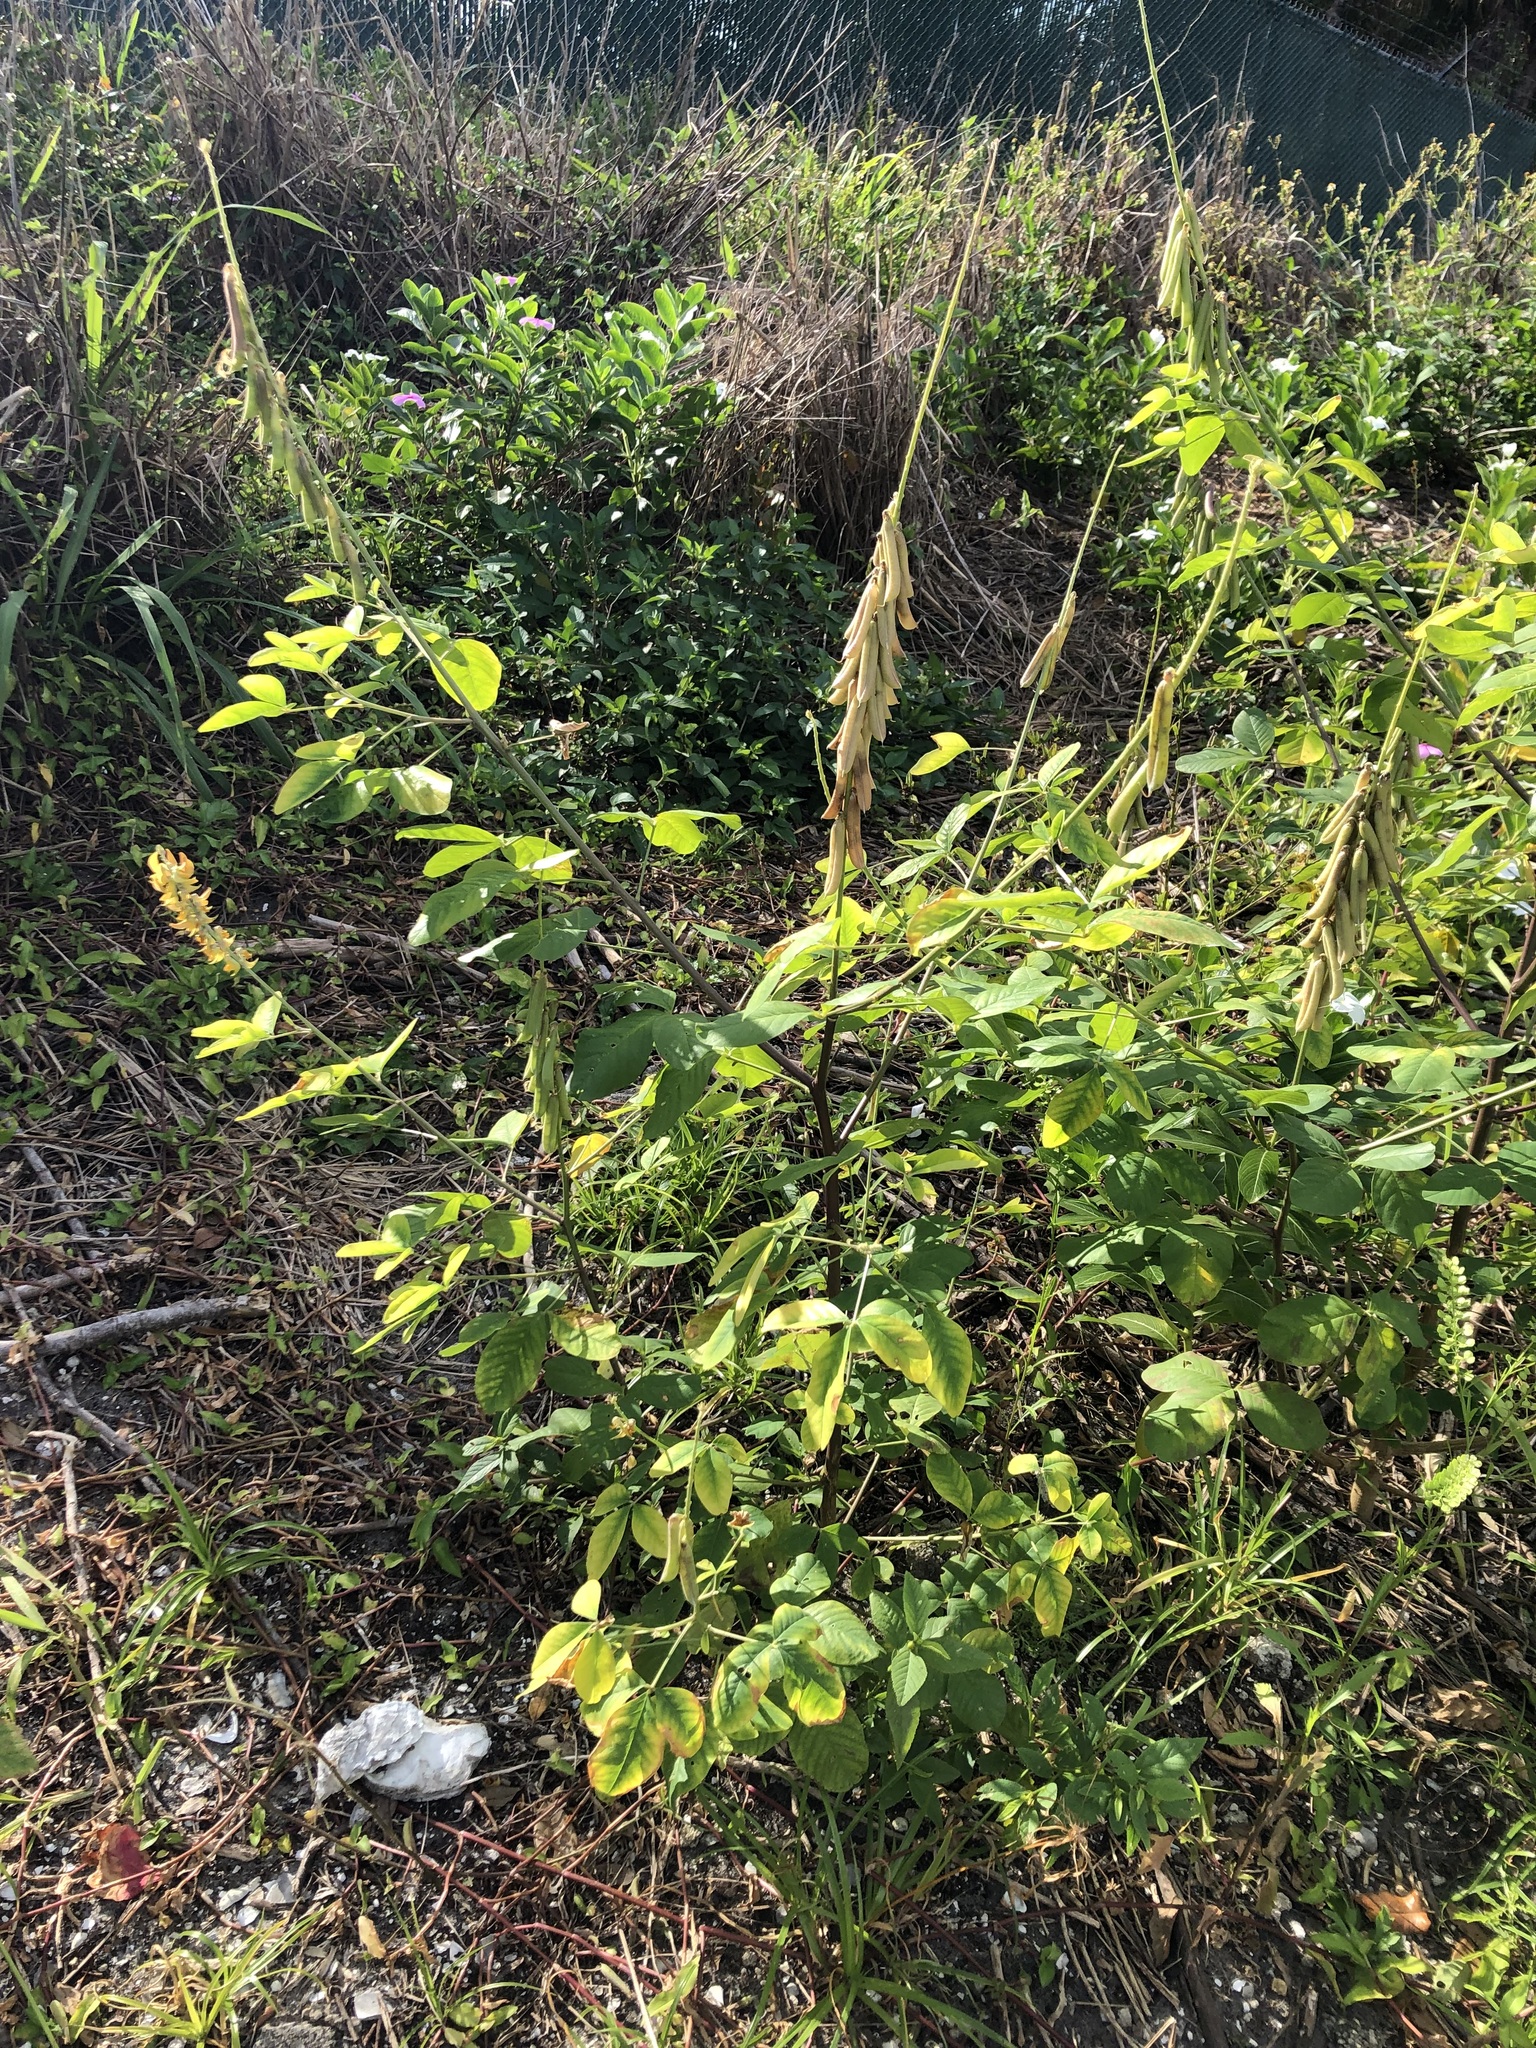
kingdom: Plantae
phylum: Tracheophyta
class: Magnoliopsida
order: Fabales
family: Fabaceae
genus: Crotalaria
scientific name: Crotalaria pallida
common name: Smooth rattlebox
